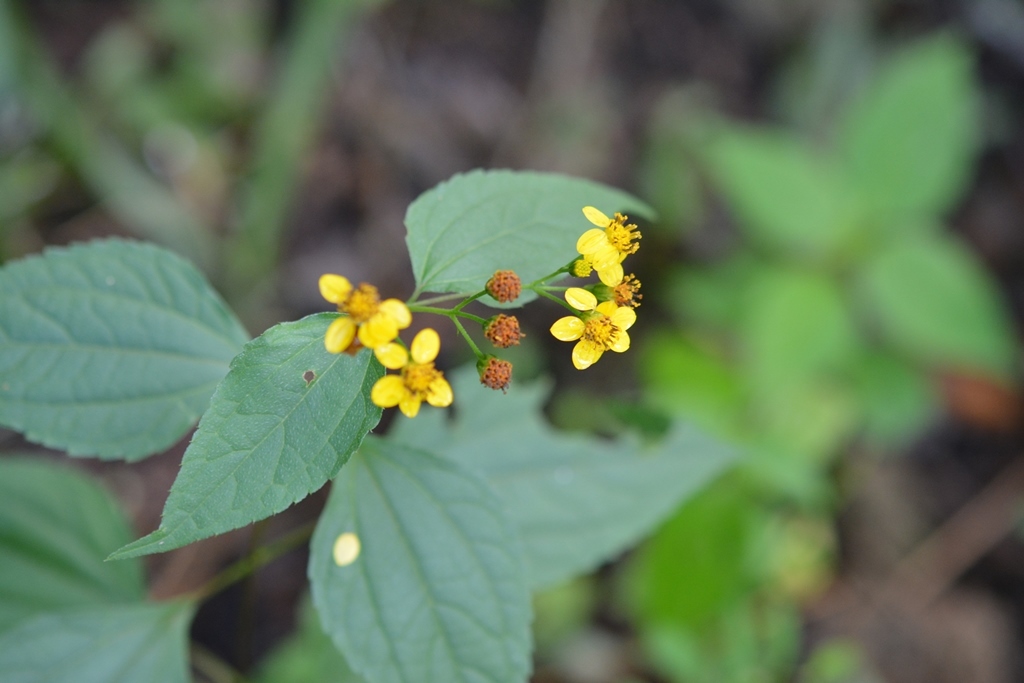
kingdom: Plantae
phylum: Tracheophyta
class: Magnoliopsida
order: Asterales
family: Asteraceae
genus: Calea
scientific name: Calea urticifolia
